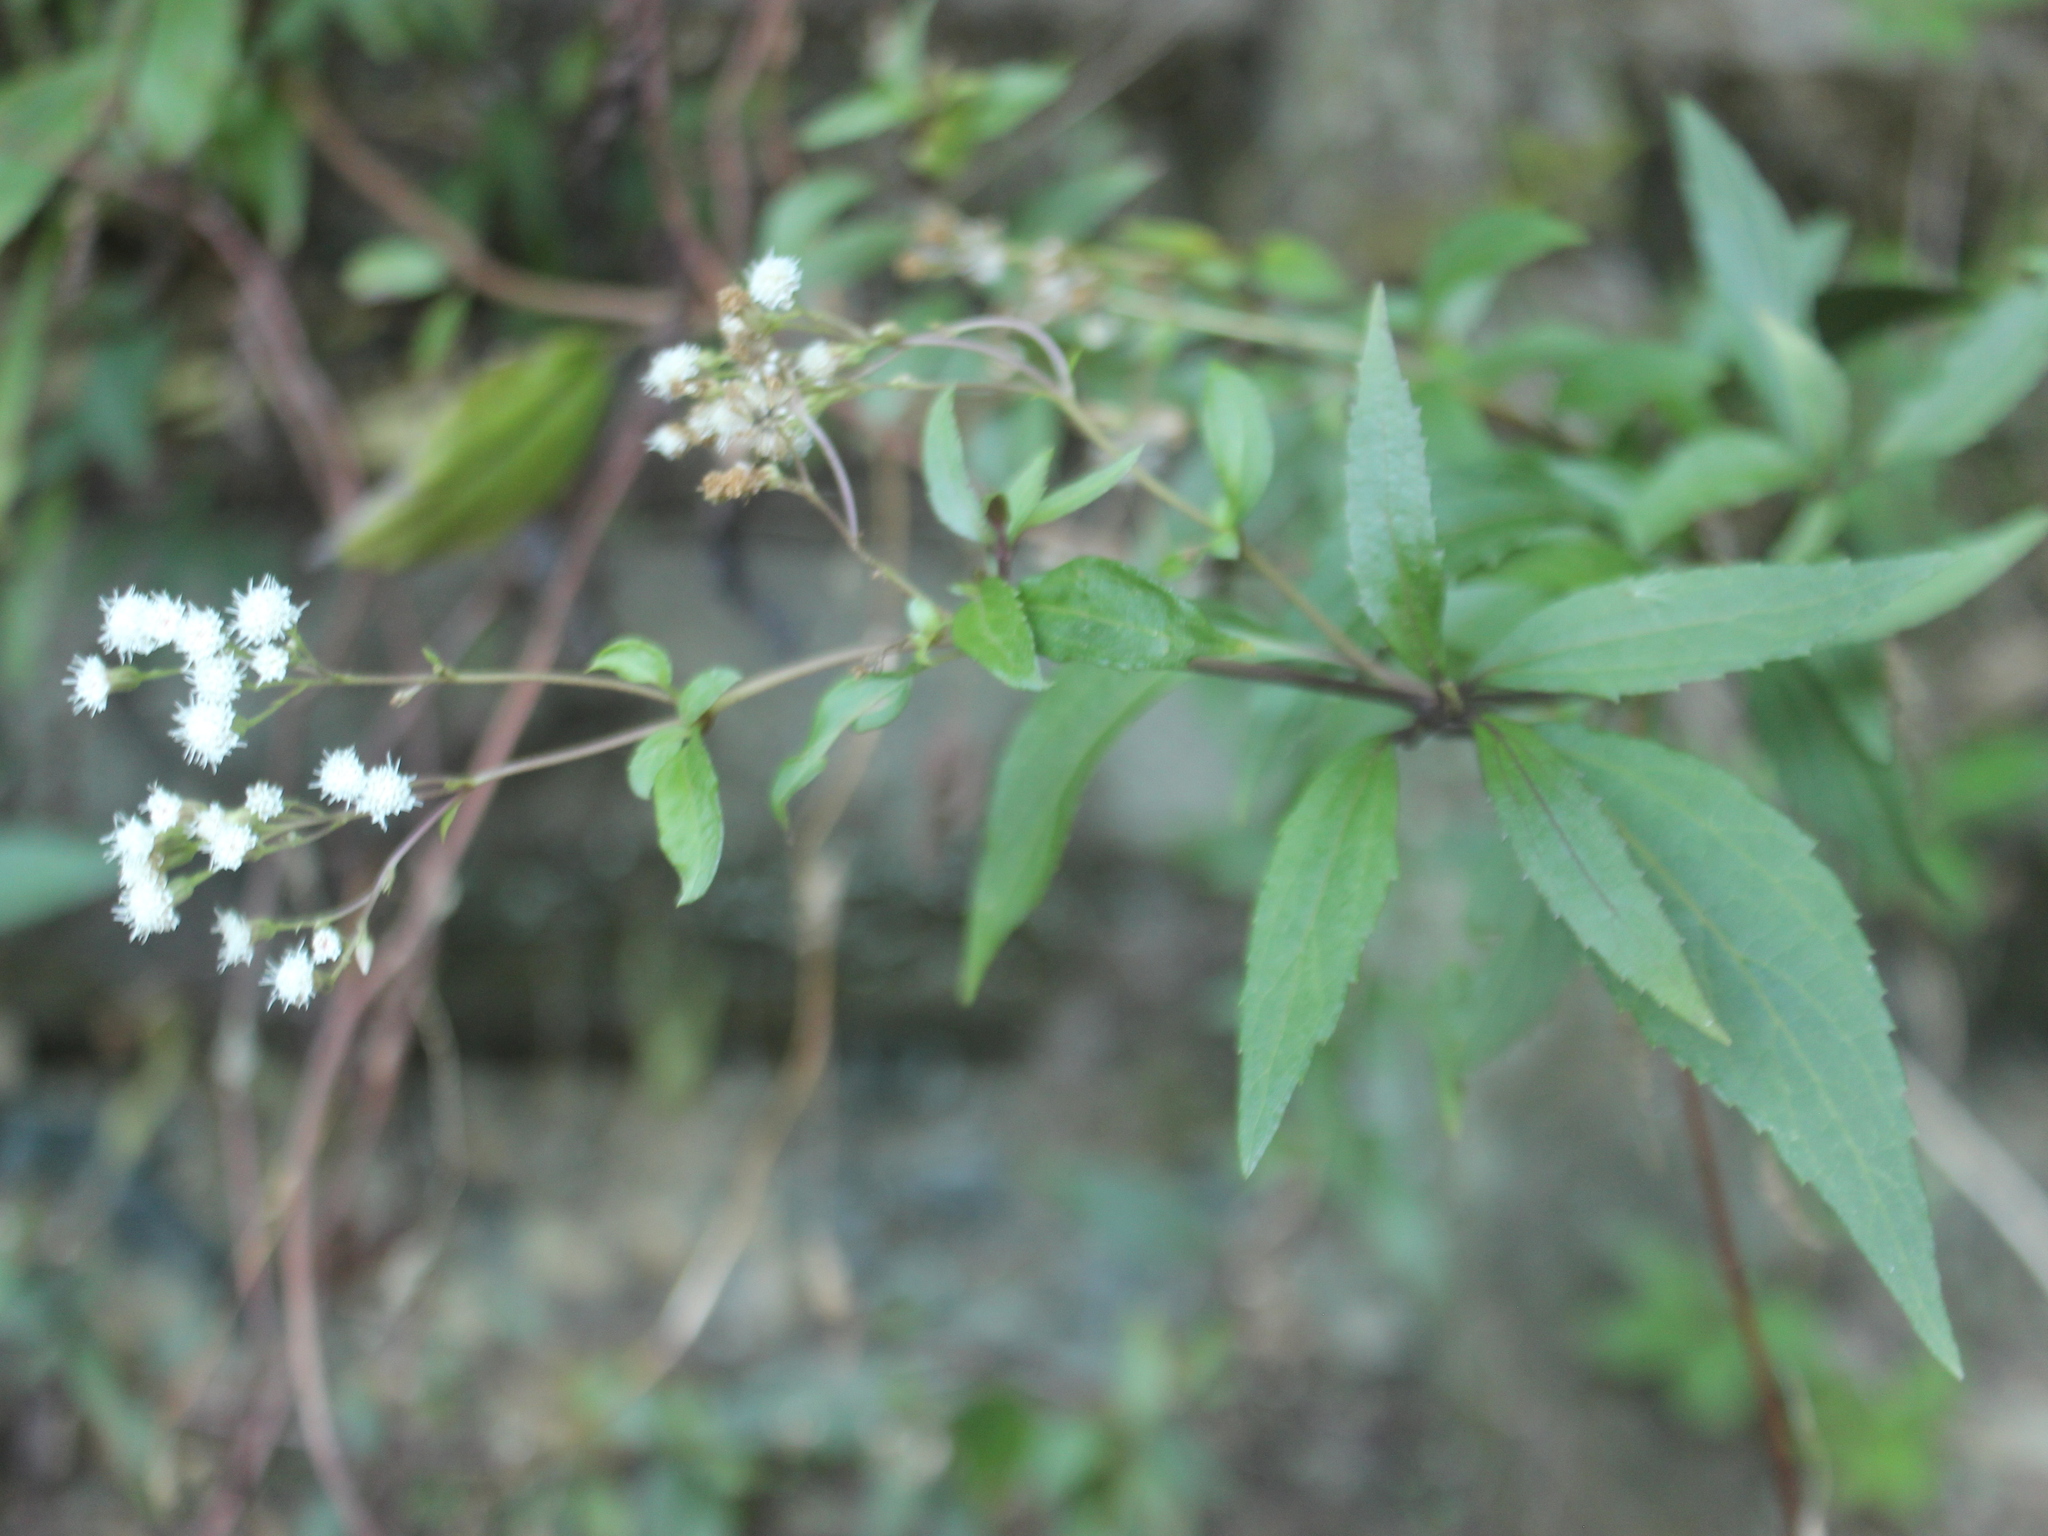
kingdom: Plantae
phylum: Tracheophyta
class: Magnoliopsida
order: Asterales
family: Asteraceae
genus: Ageratina
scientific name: Ageratina riparia
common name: Creeping croftonweed
